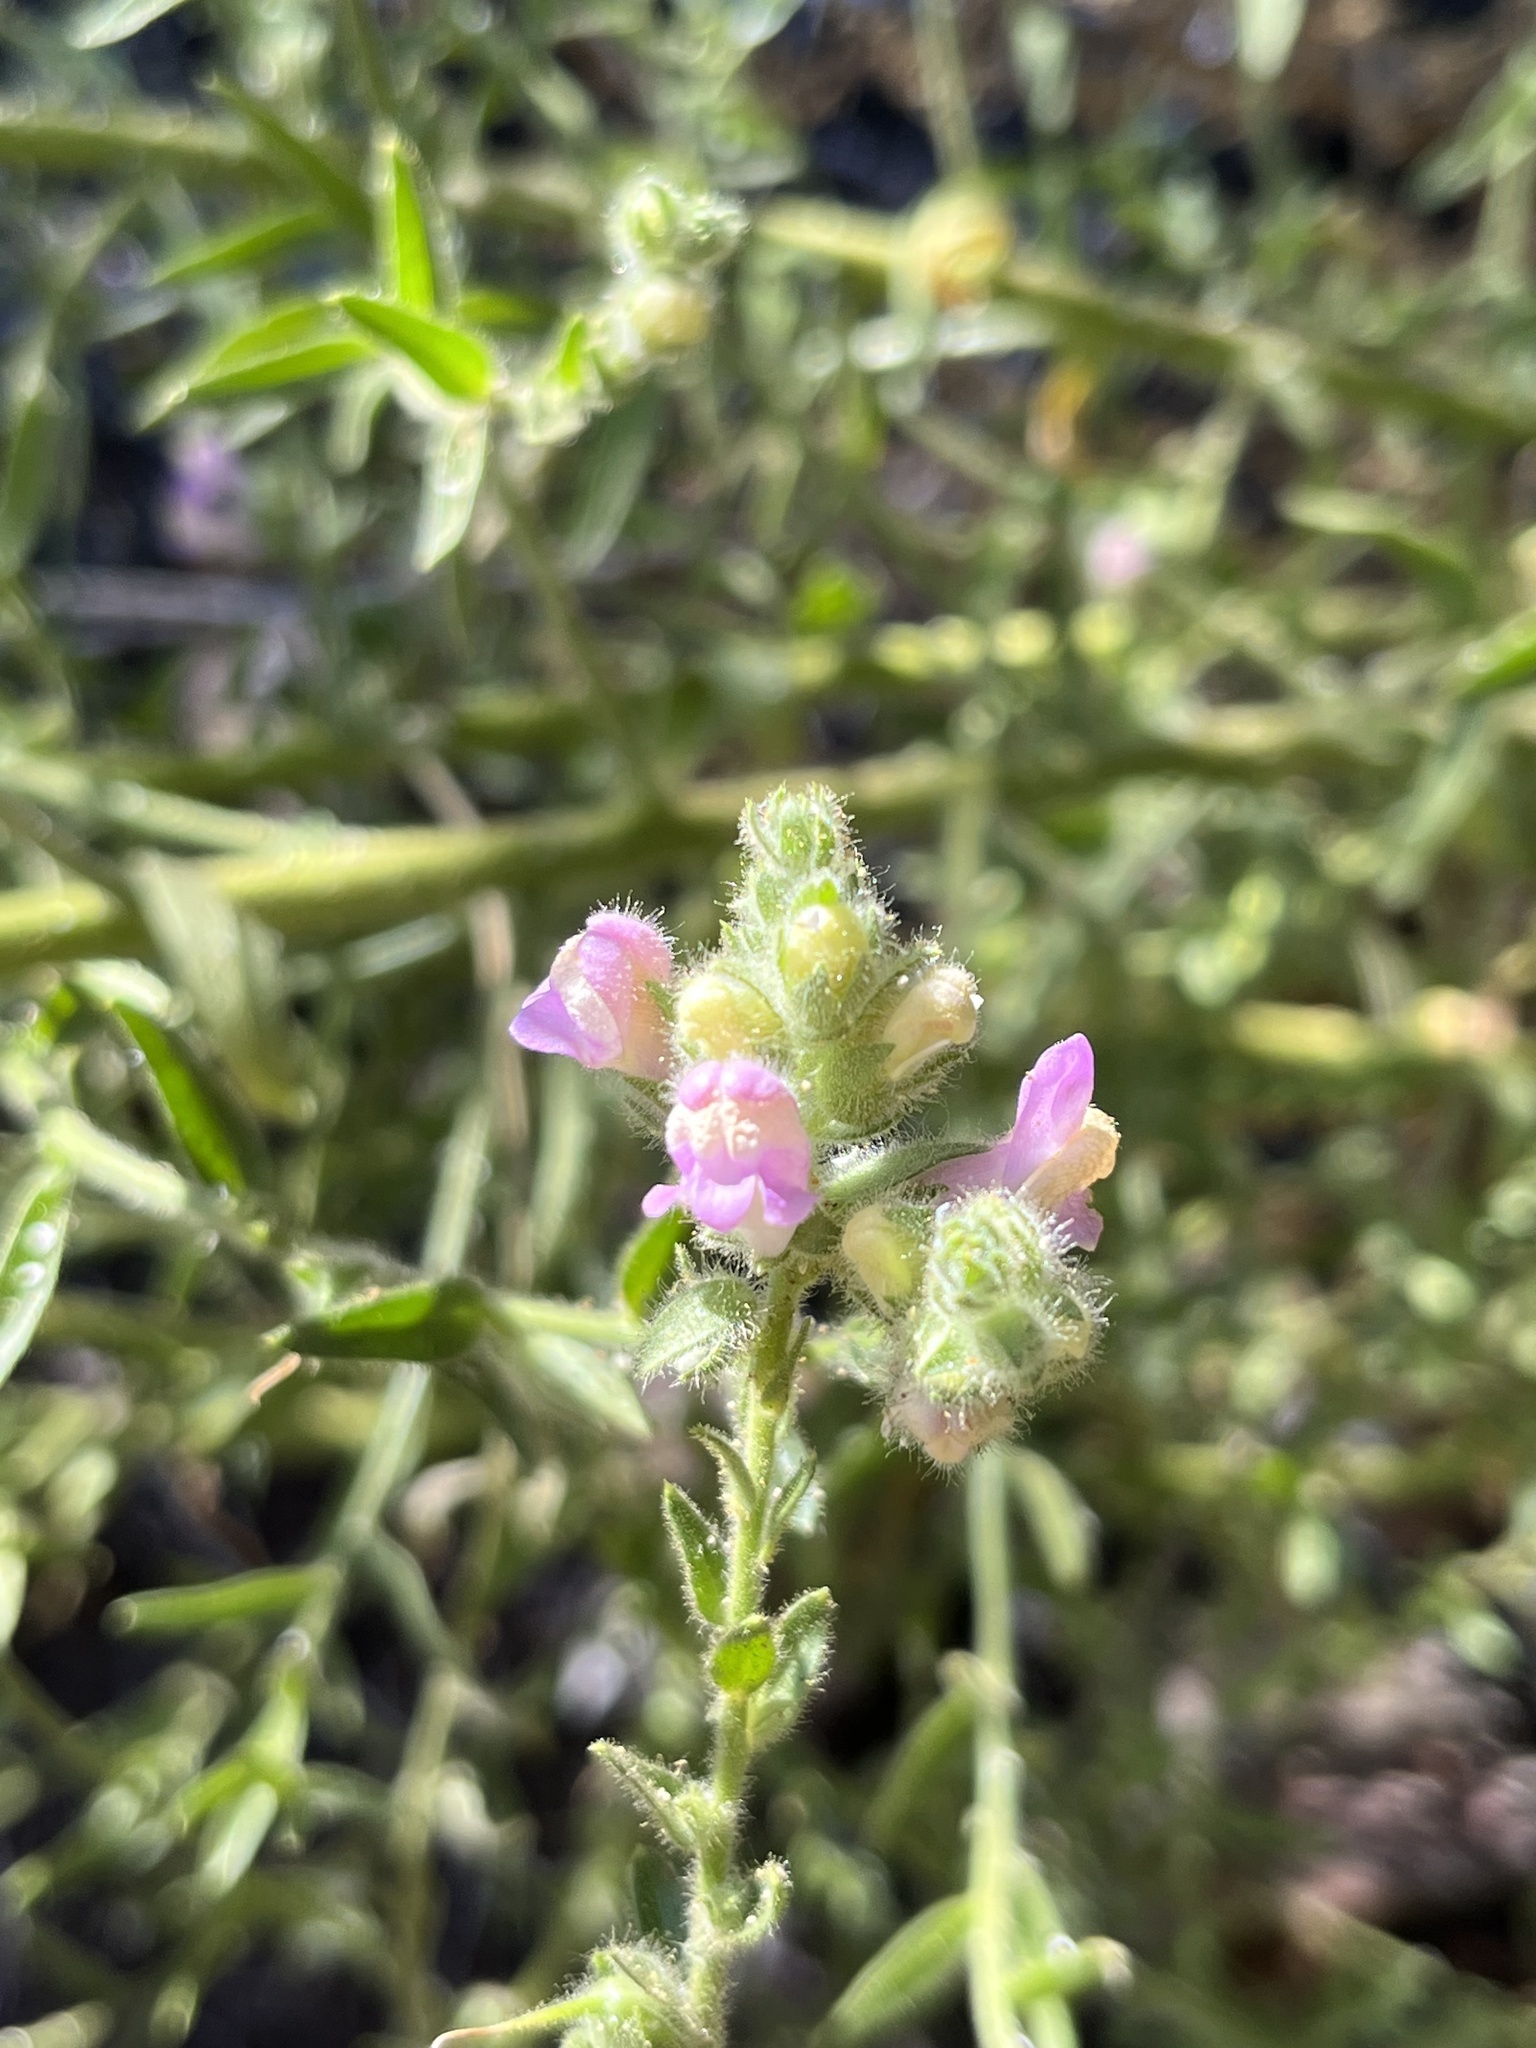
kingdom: Plantae
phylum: Tracheophyta
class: Magnoliopsida
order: Lamiales
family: Plantaginaceae
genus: Sairocarpus
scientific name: Sairocarpus multiflorus
